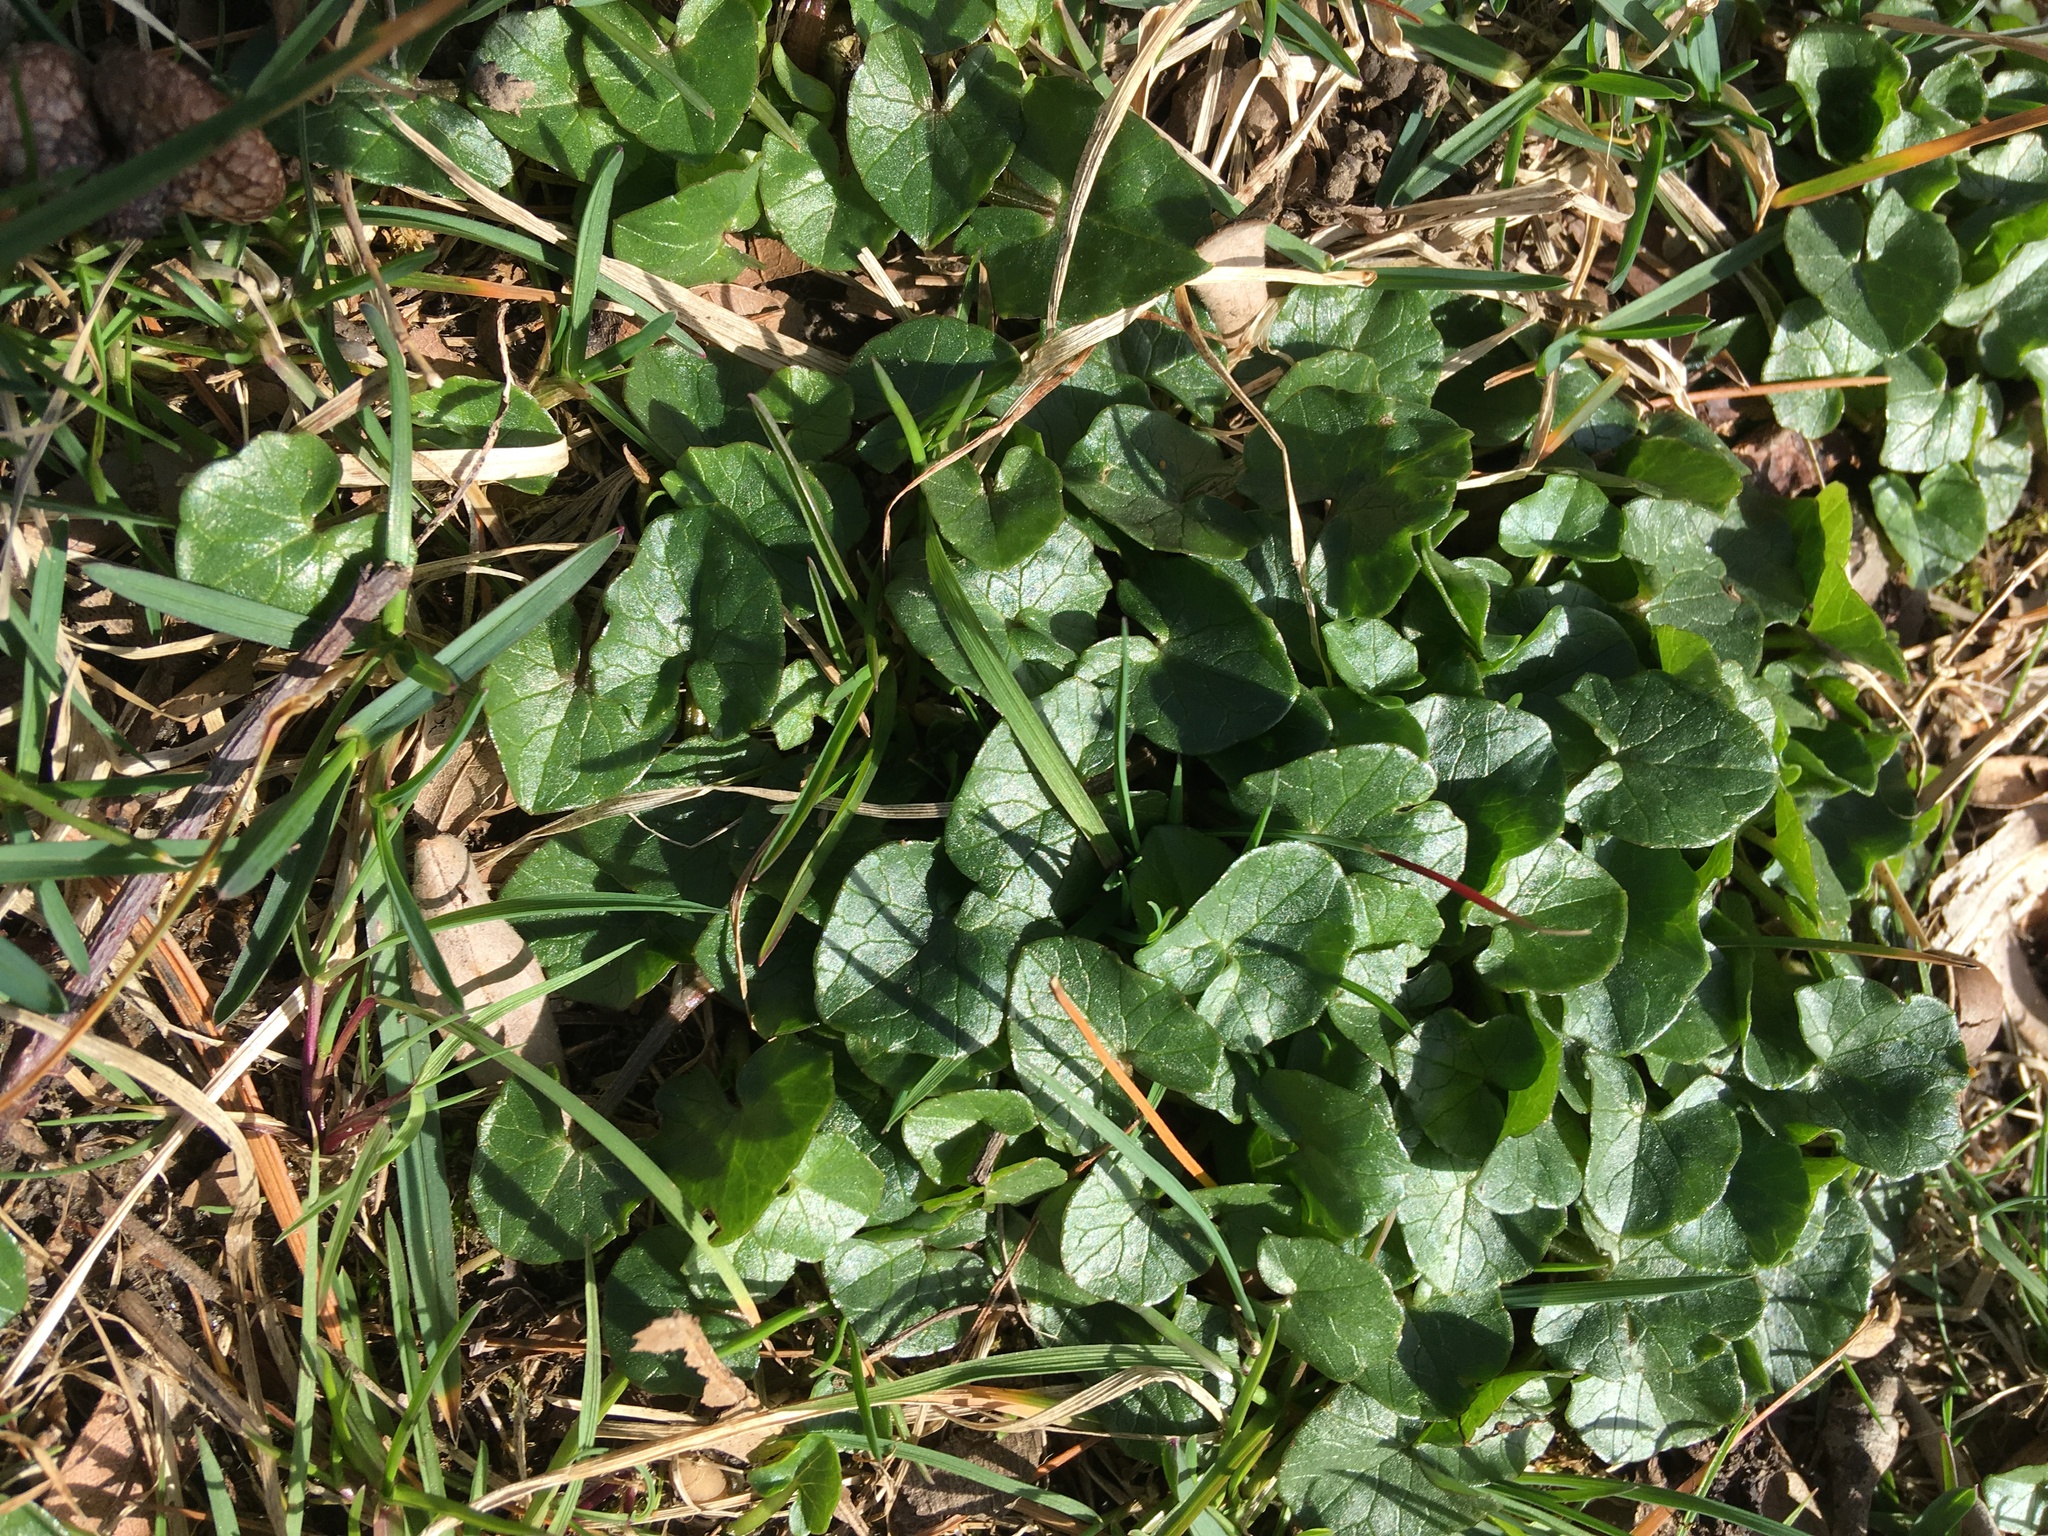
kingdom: Plantae
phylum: Tracheophyta
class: Magnoliopsida
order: Ranunculales
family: Ranunculaceae
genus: Ficaria
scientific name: Ficaria verna
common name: Lesser celandine
